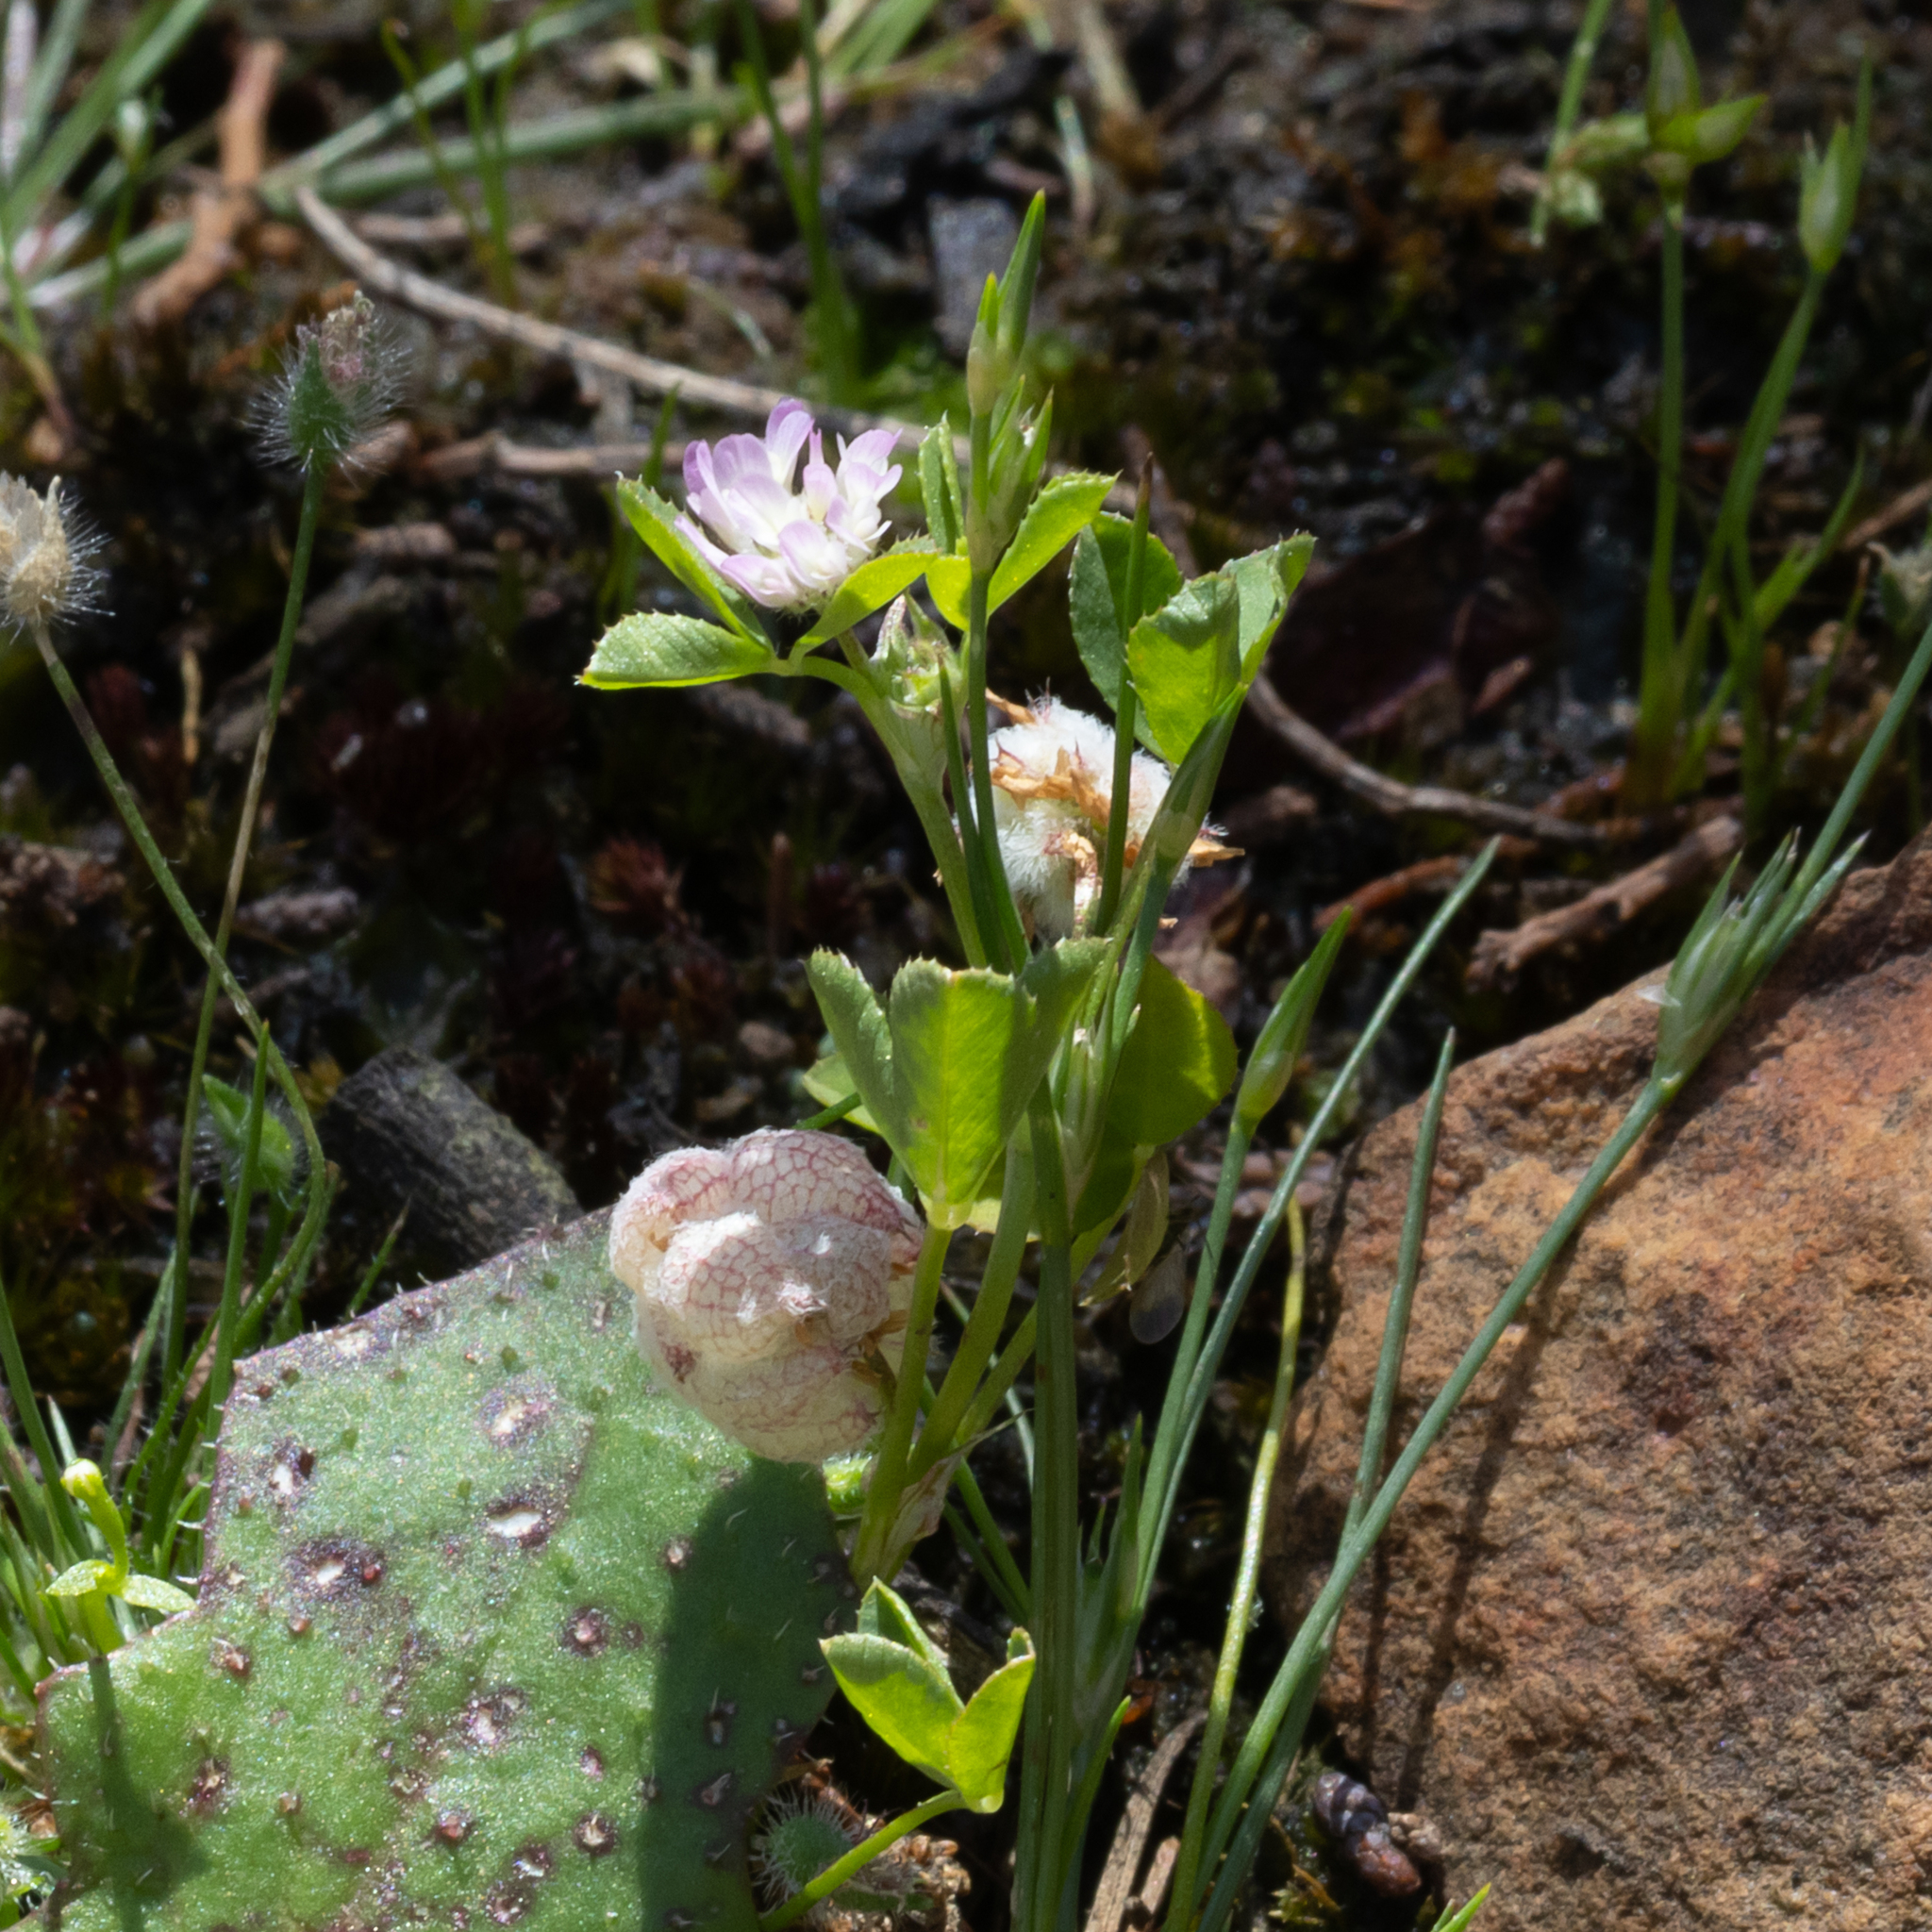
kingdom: Plantae
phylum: Tracheophyta
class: Magnoliopsida
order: Fabales
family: Fabaceae
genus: Trifolium
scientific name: Trifolium tomentosum
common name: Woolly clover
